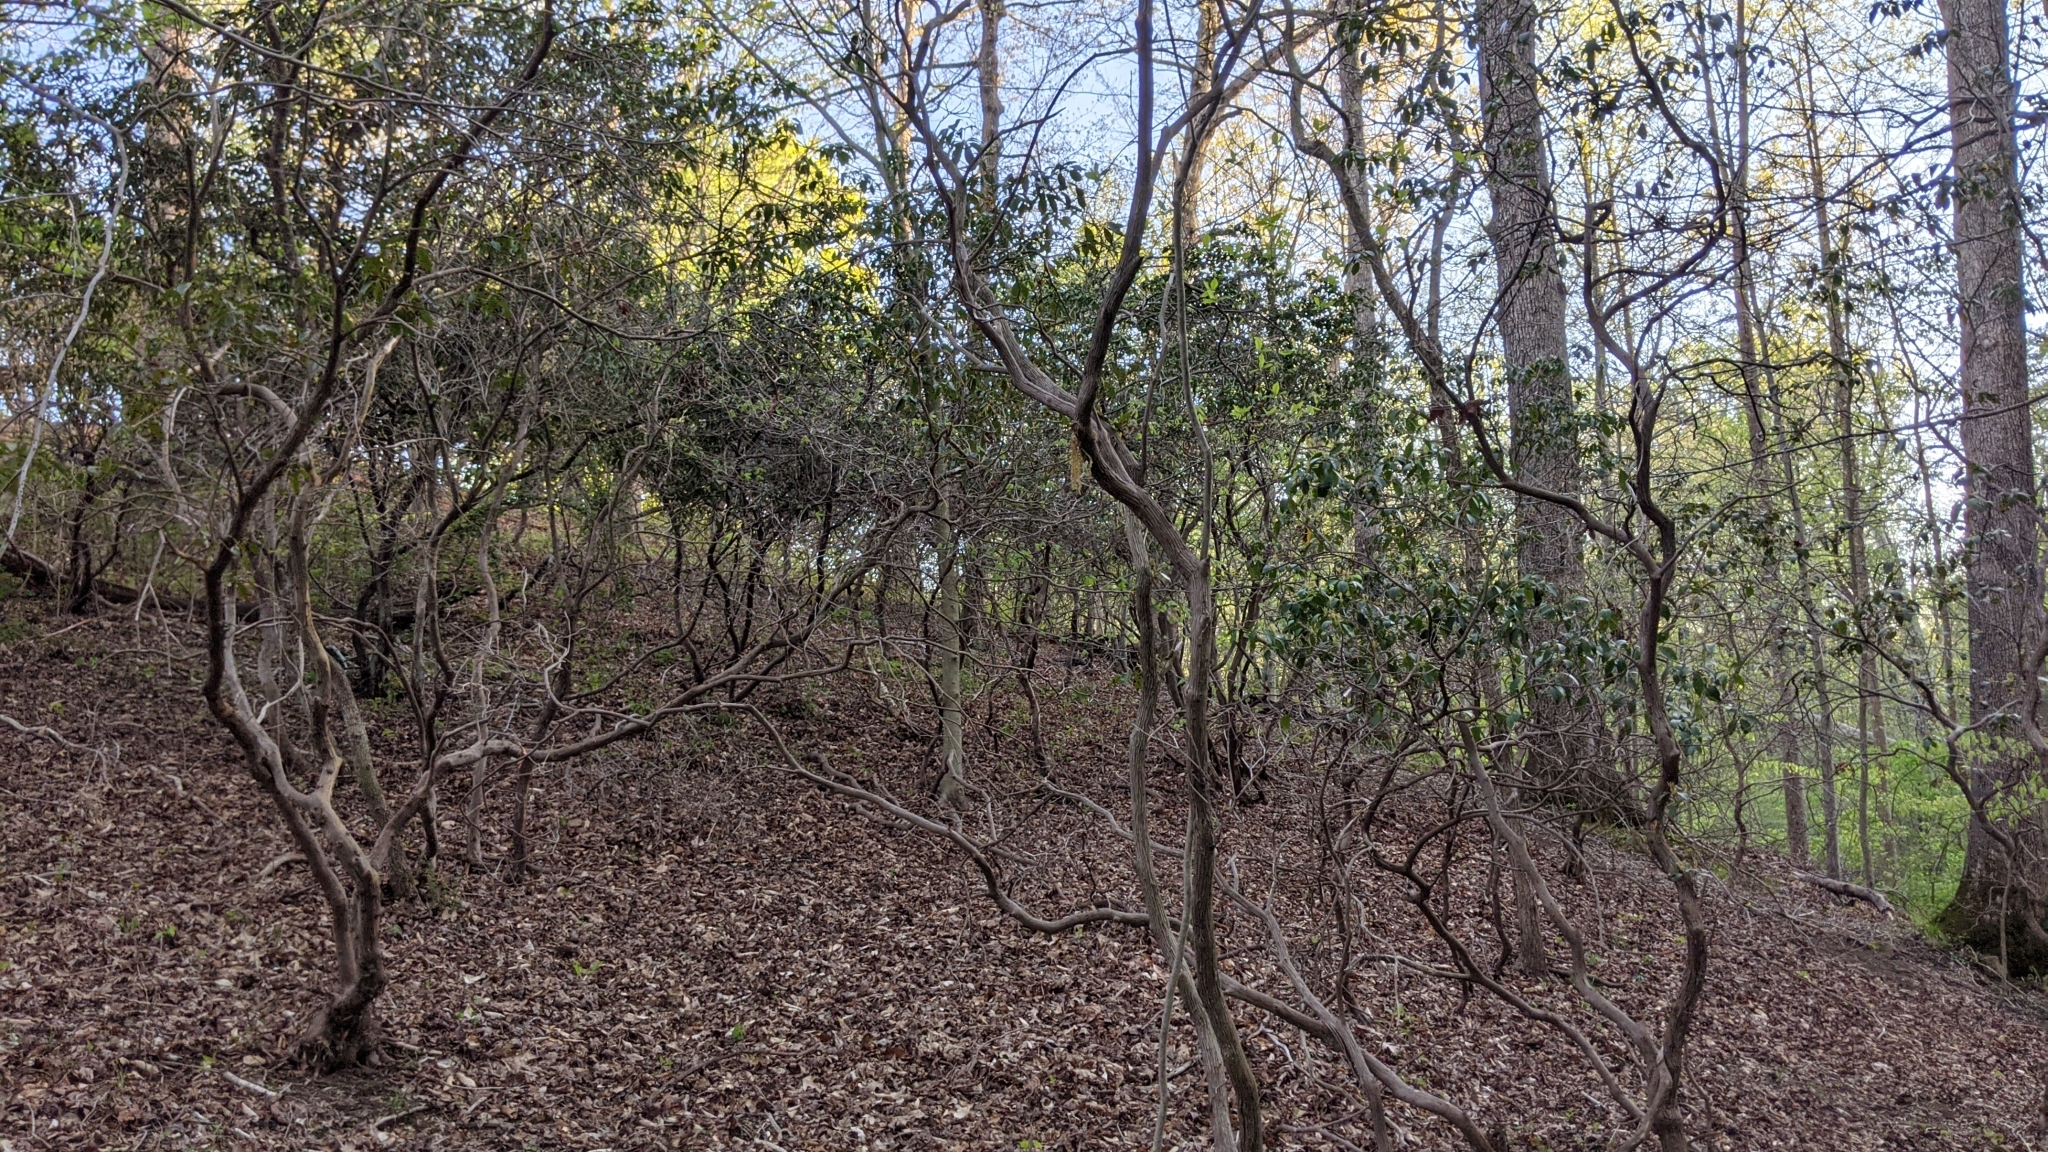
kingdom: Plantae
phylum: Tracheophyta
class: Magnoliopsida
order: Ericales
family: Ericaceae
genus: Kalmia
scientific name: Kalmia latifolia
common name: Mountain-laurel
